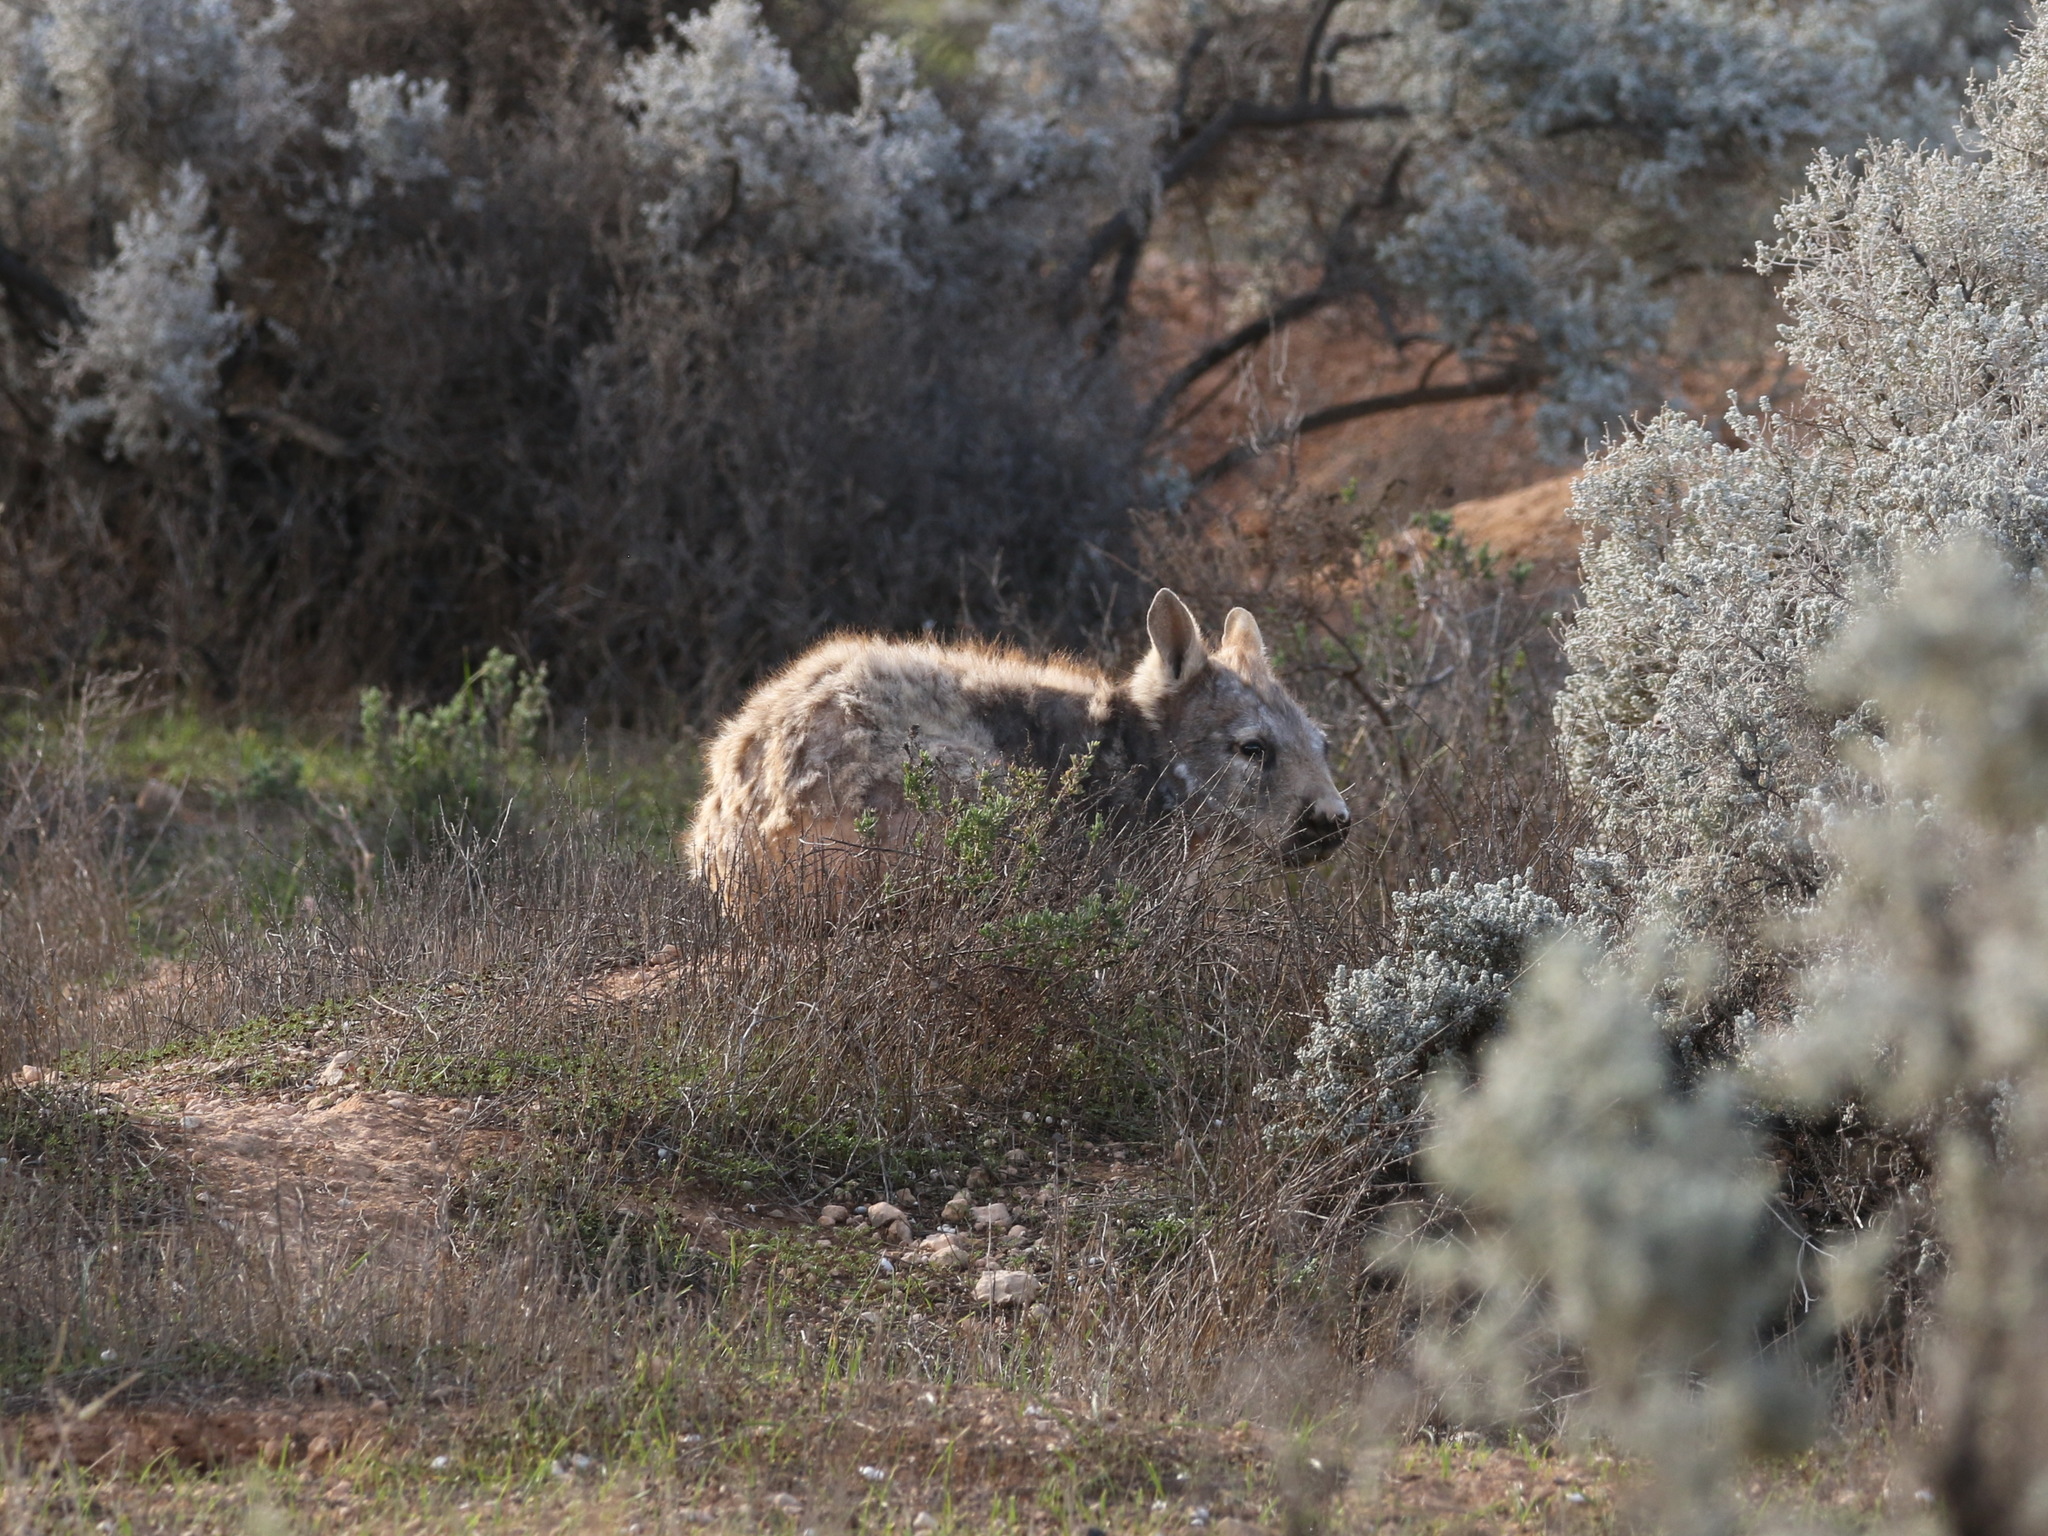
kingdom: Animalia
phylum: Chordata
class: Mammalia
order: Diprotodontia
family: Vombatidae
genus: Lasiorhinus
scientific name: Lasiorhinus latifrons
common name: Southern hairy-nosed wombat
